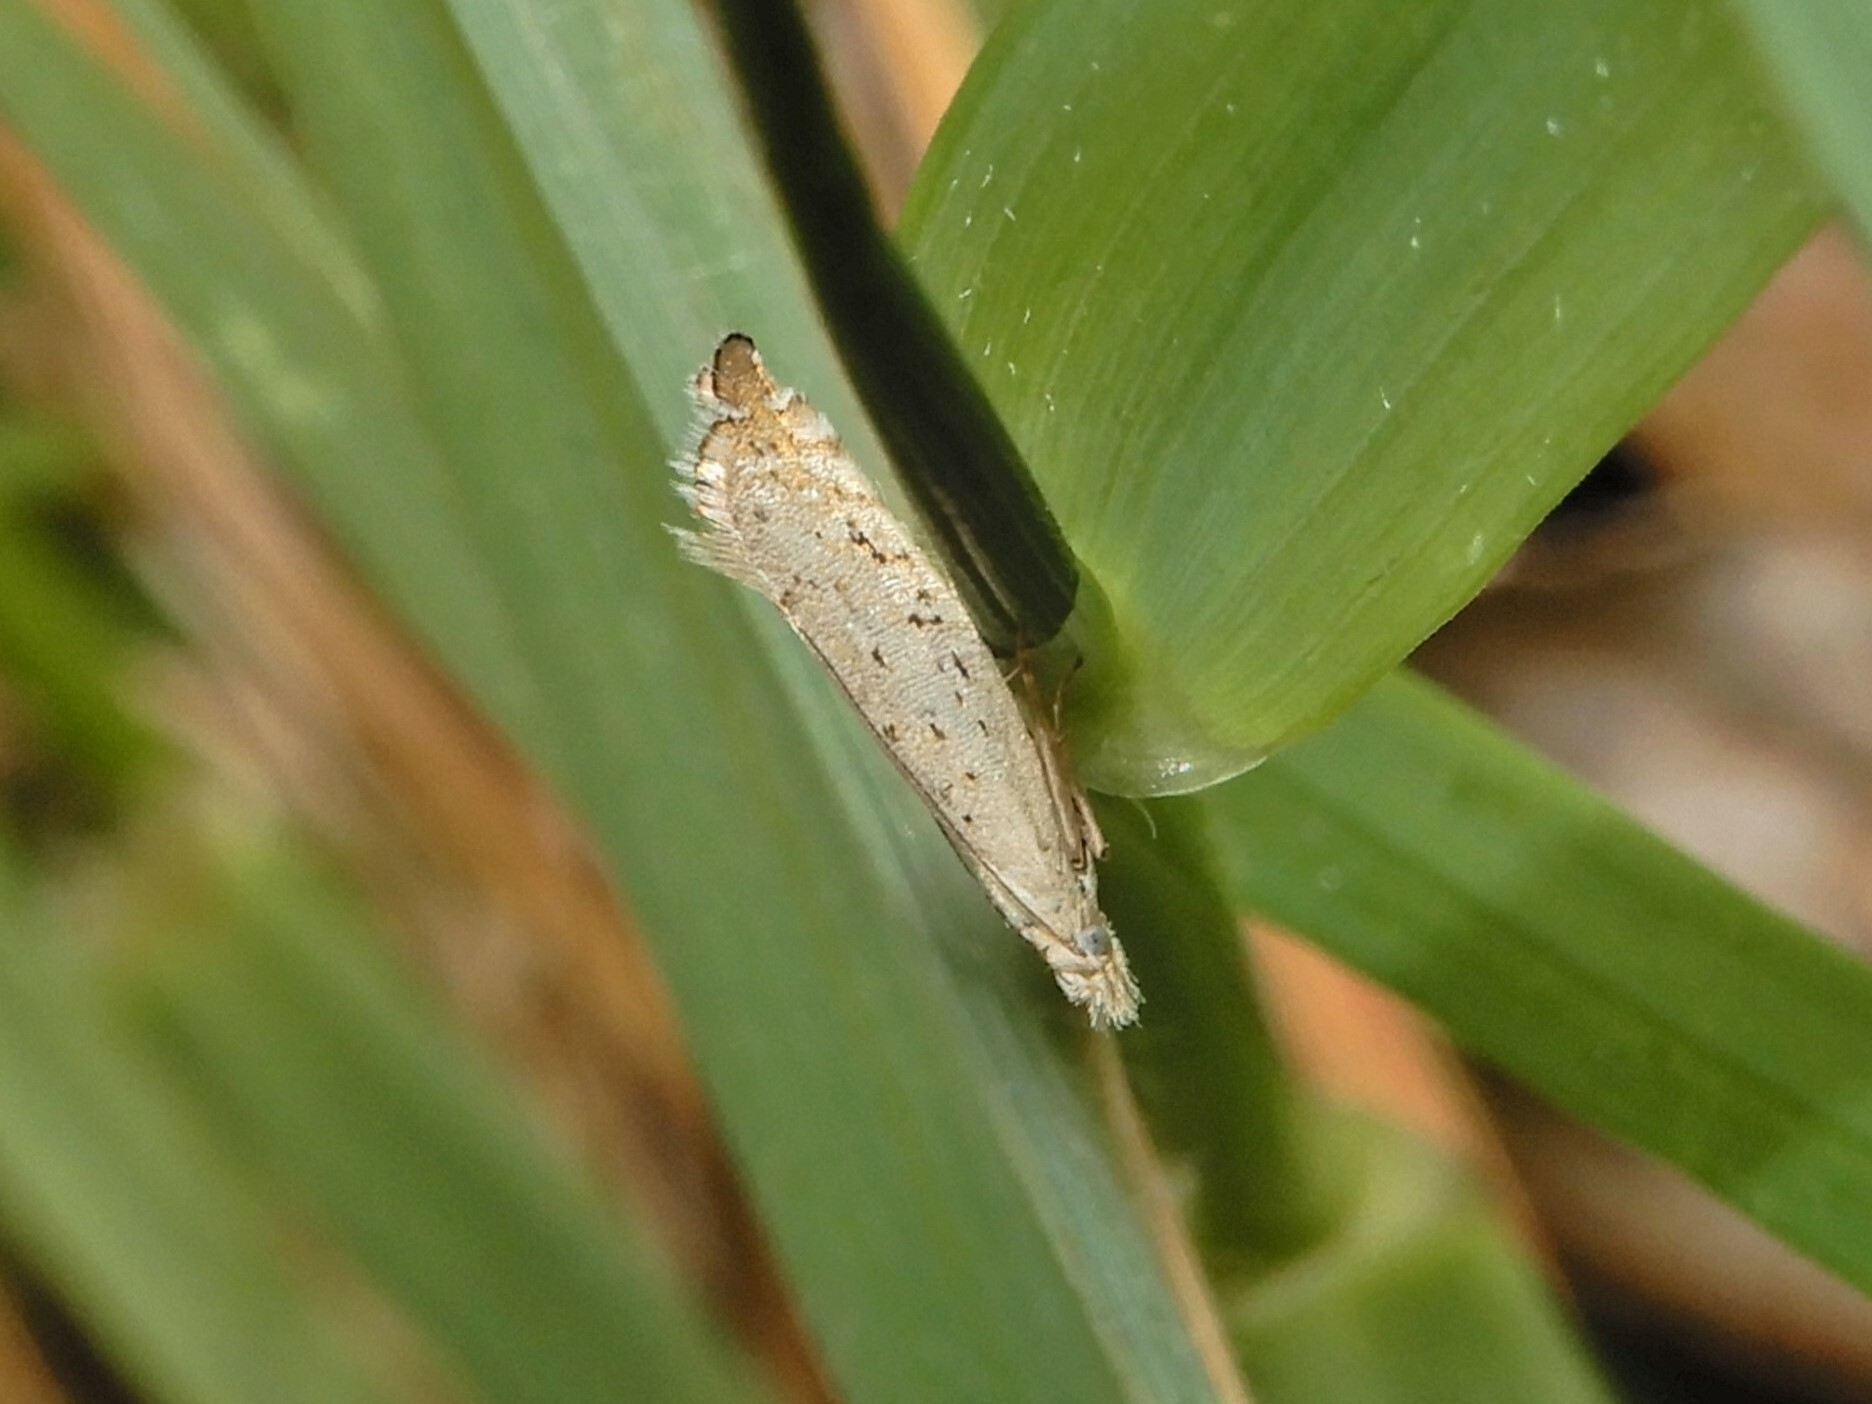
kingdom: Animalia
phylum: Arthropoda
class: Insecta
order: Lepidoptera
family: Glyphipterigidae
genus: Glyphipterix
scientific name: Glyphipterix achlyoessa
